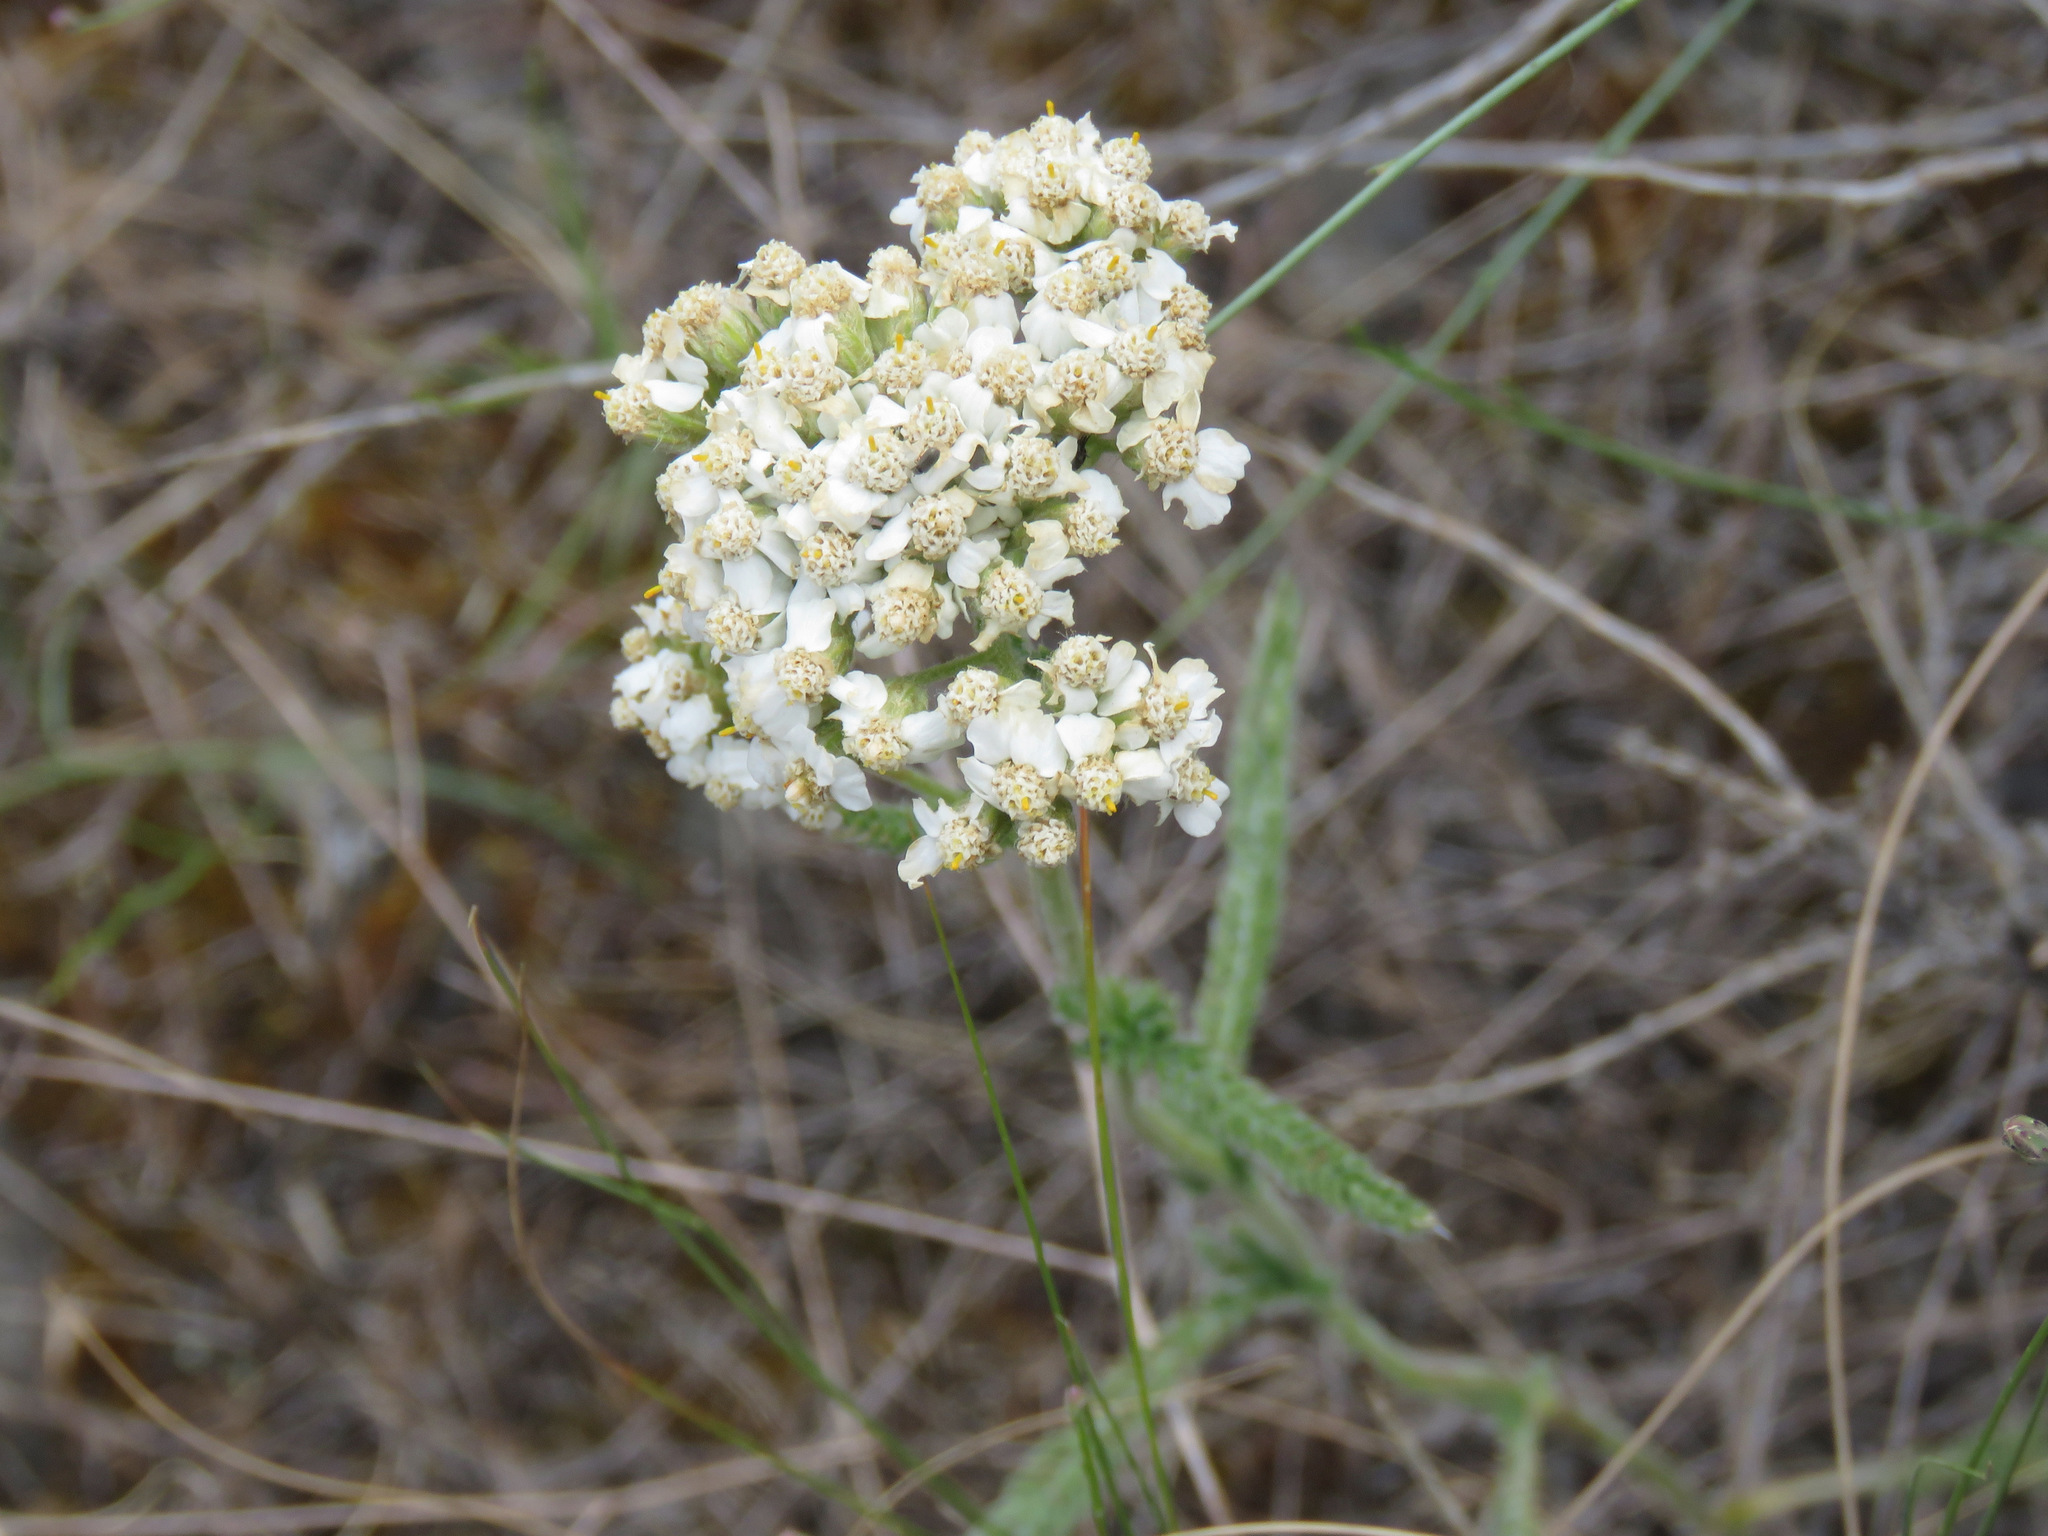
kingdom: Plantae
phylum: Tracheophyta
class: Magnoliopsida
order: Asterales
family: Asteraceae
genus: Achillea
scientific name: Achillea millefolium
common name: Yarrow
